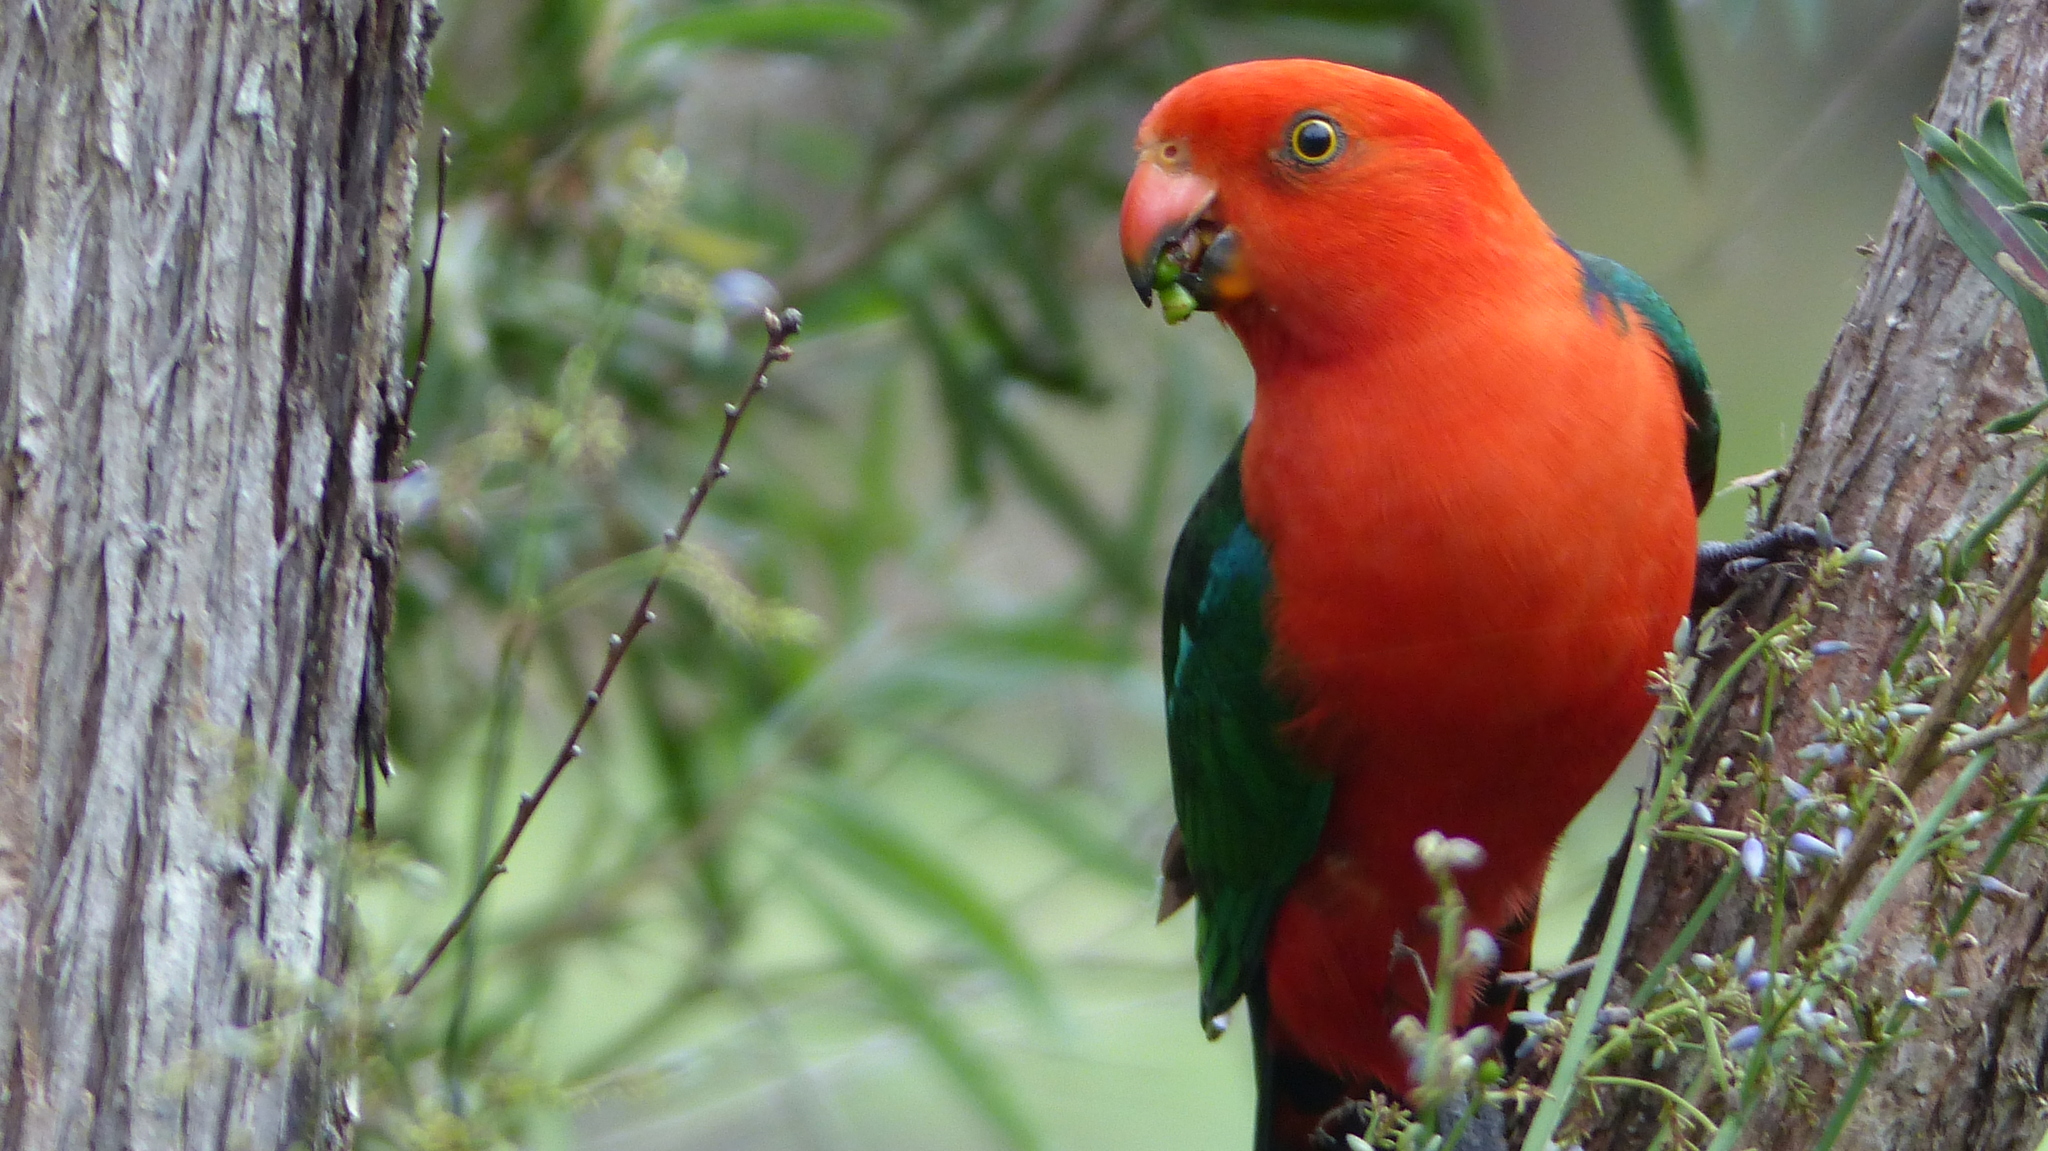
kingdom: Animalia
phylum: Chordata
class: Aves
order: Psittaciformes
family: Psittacidae
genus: Alisterus
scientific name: Alisterus scapularis
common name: Australian king parrot
